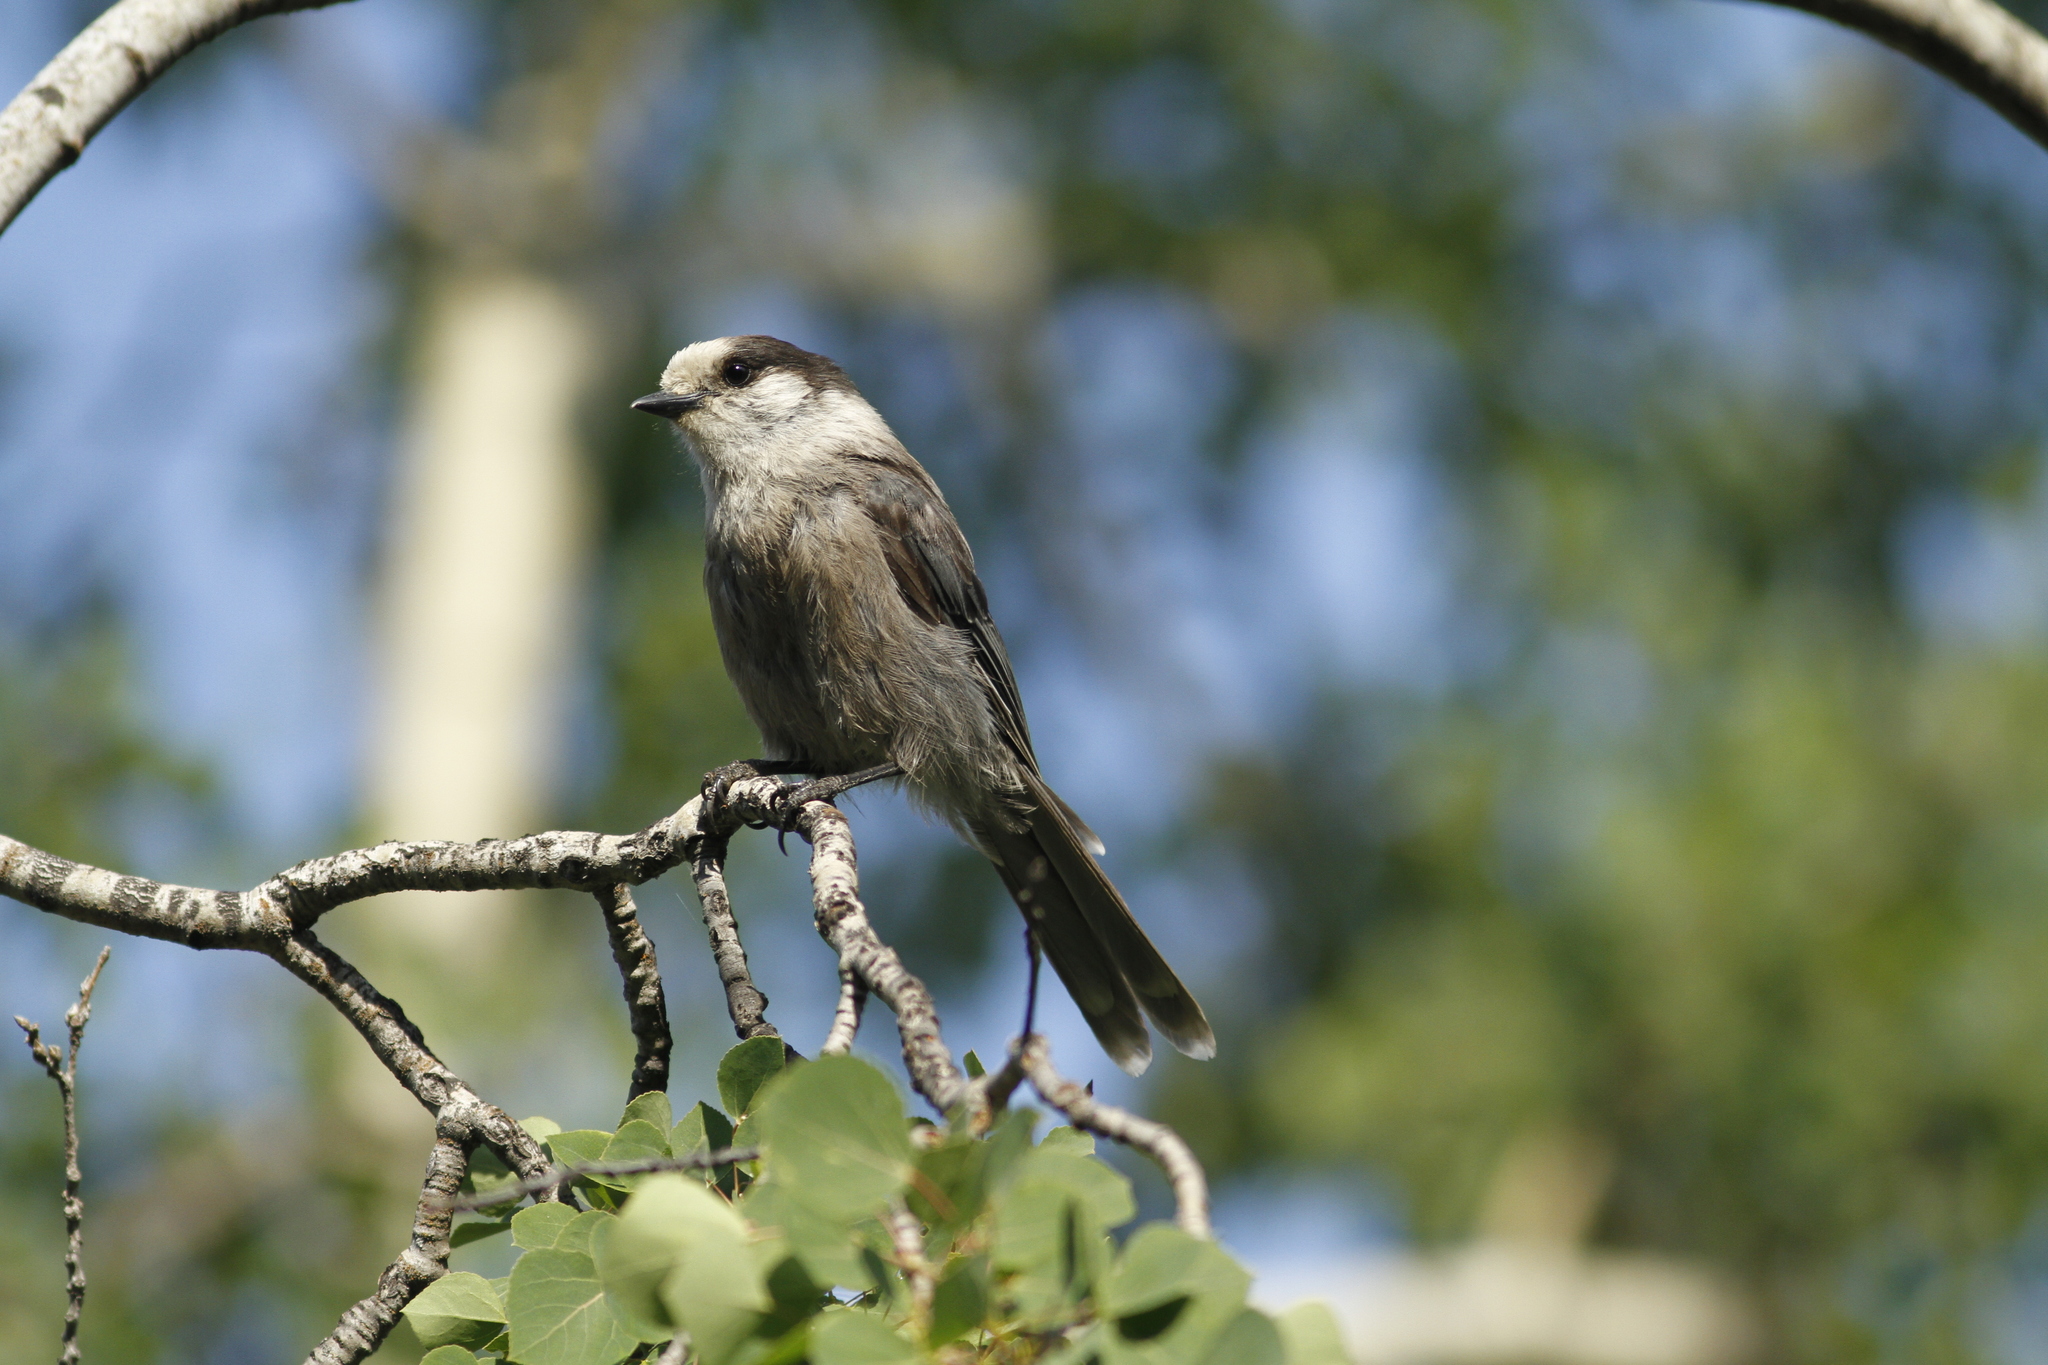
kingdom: Animalia
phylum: Chordata
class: Aves
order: Passeriformes
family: Corvidae
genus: Perisoreus
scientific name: Perisoreus canadensis
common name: Gray jay
